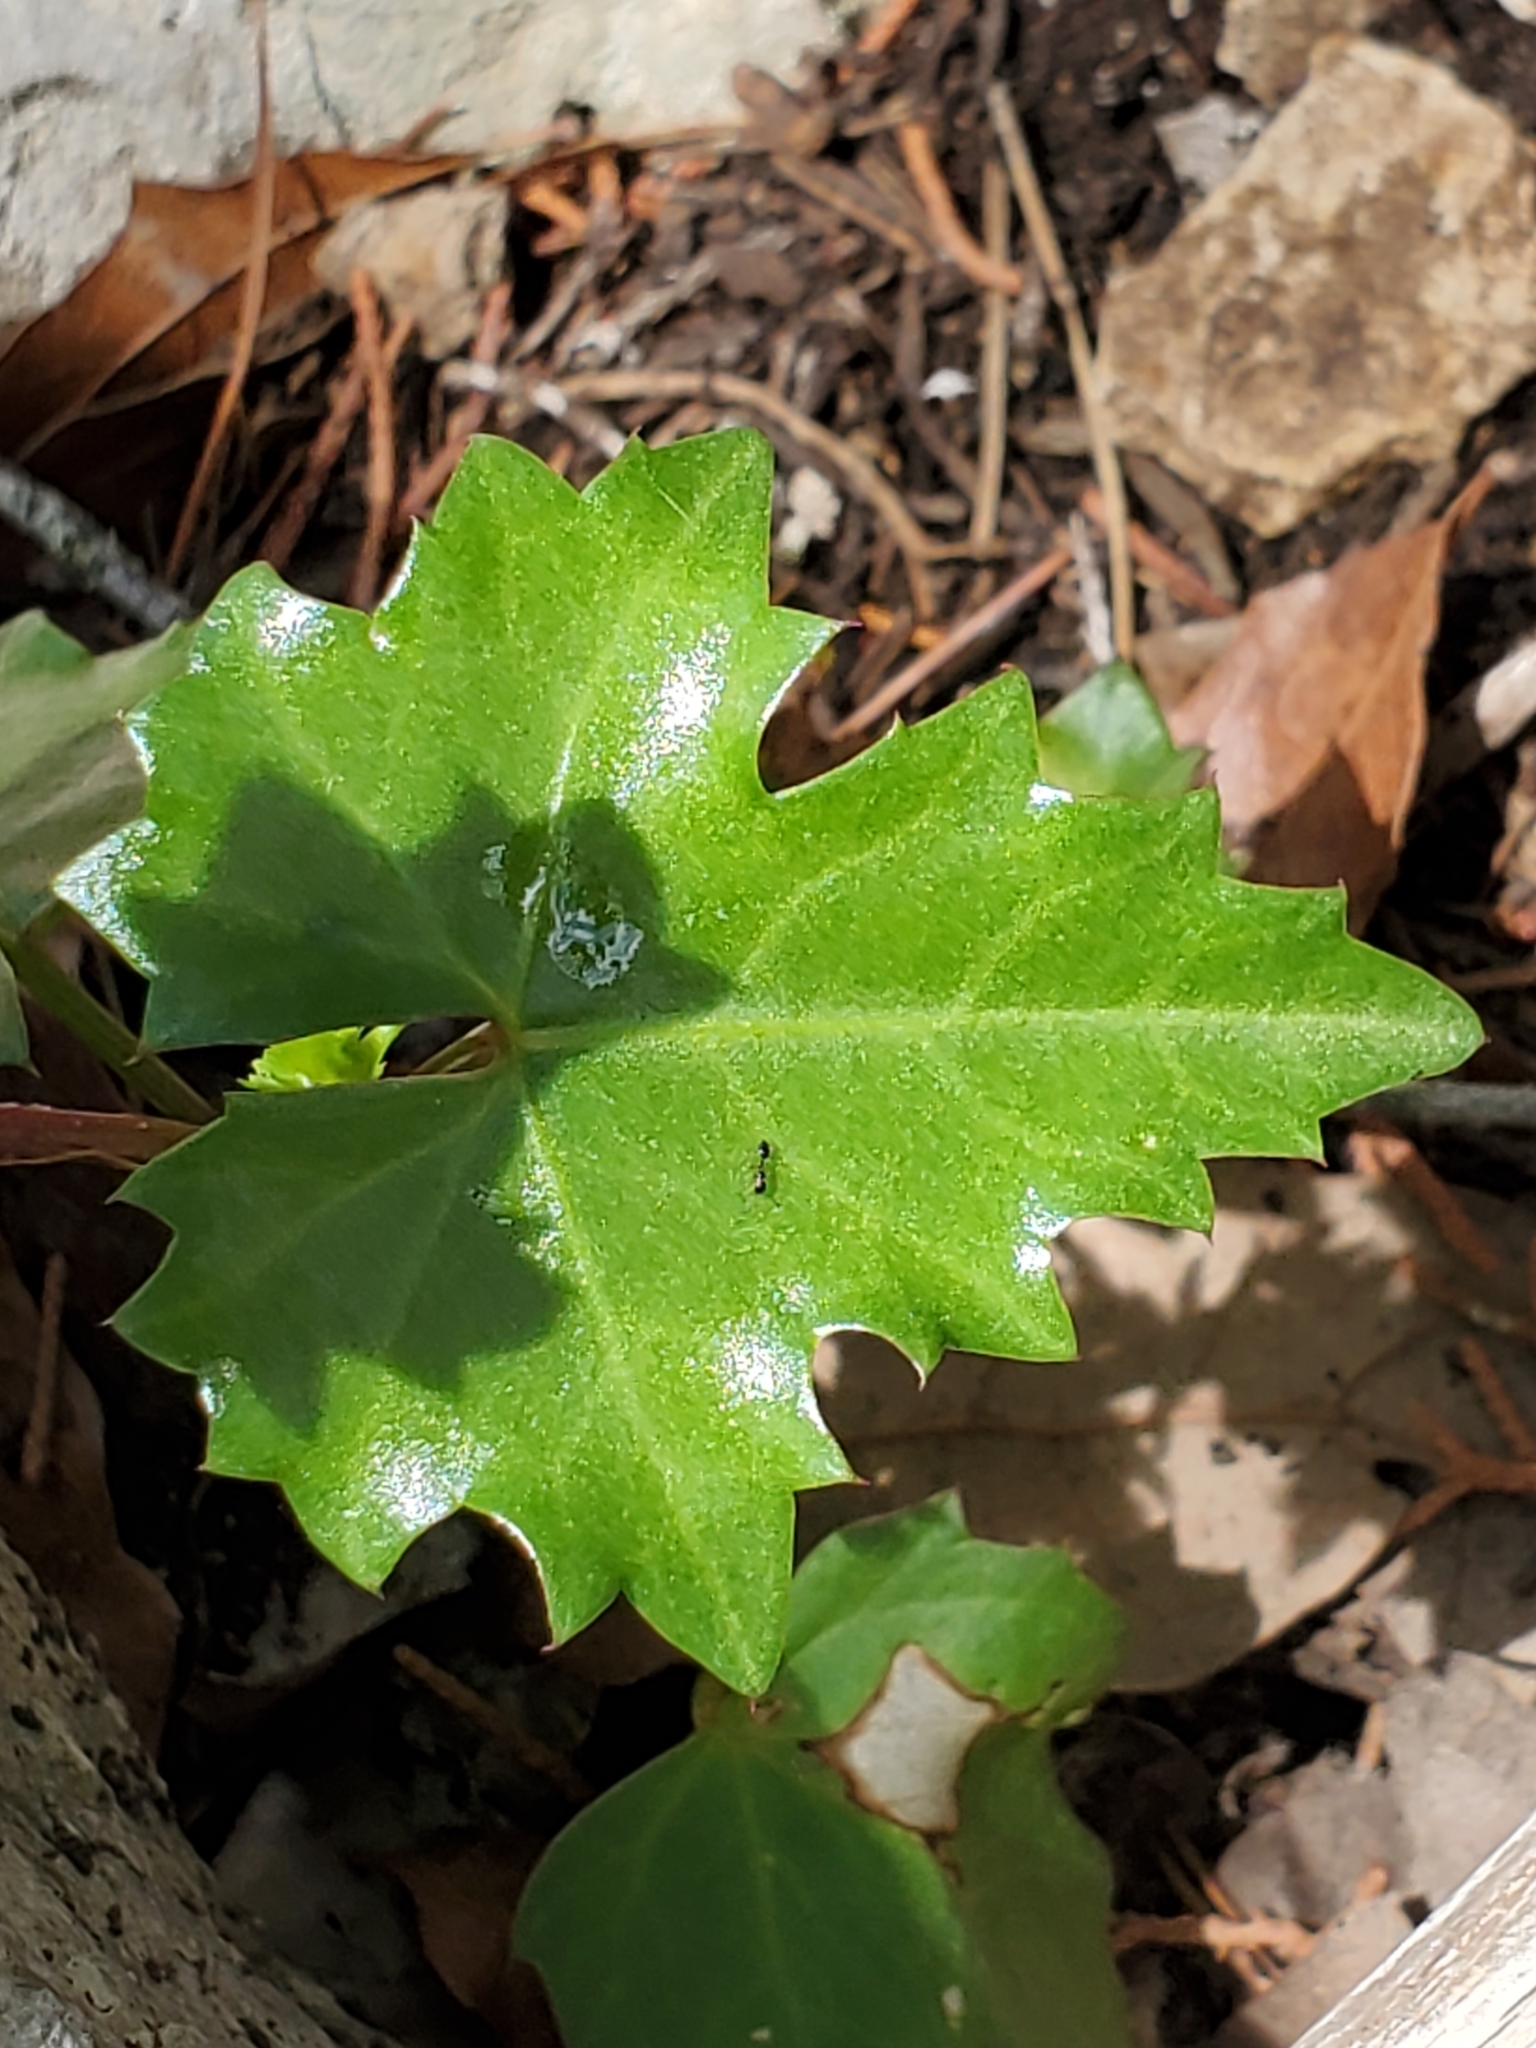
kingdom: Plantae
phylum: Tracheophyta
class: Magnoliopsida
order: Vitales
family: Vitaceae
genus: Cissus
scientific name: Cissus trifoliata
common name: Vine-sorrel
